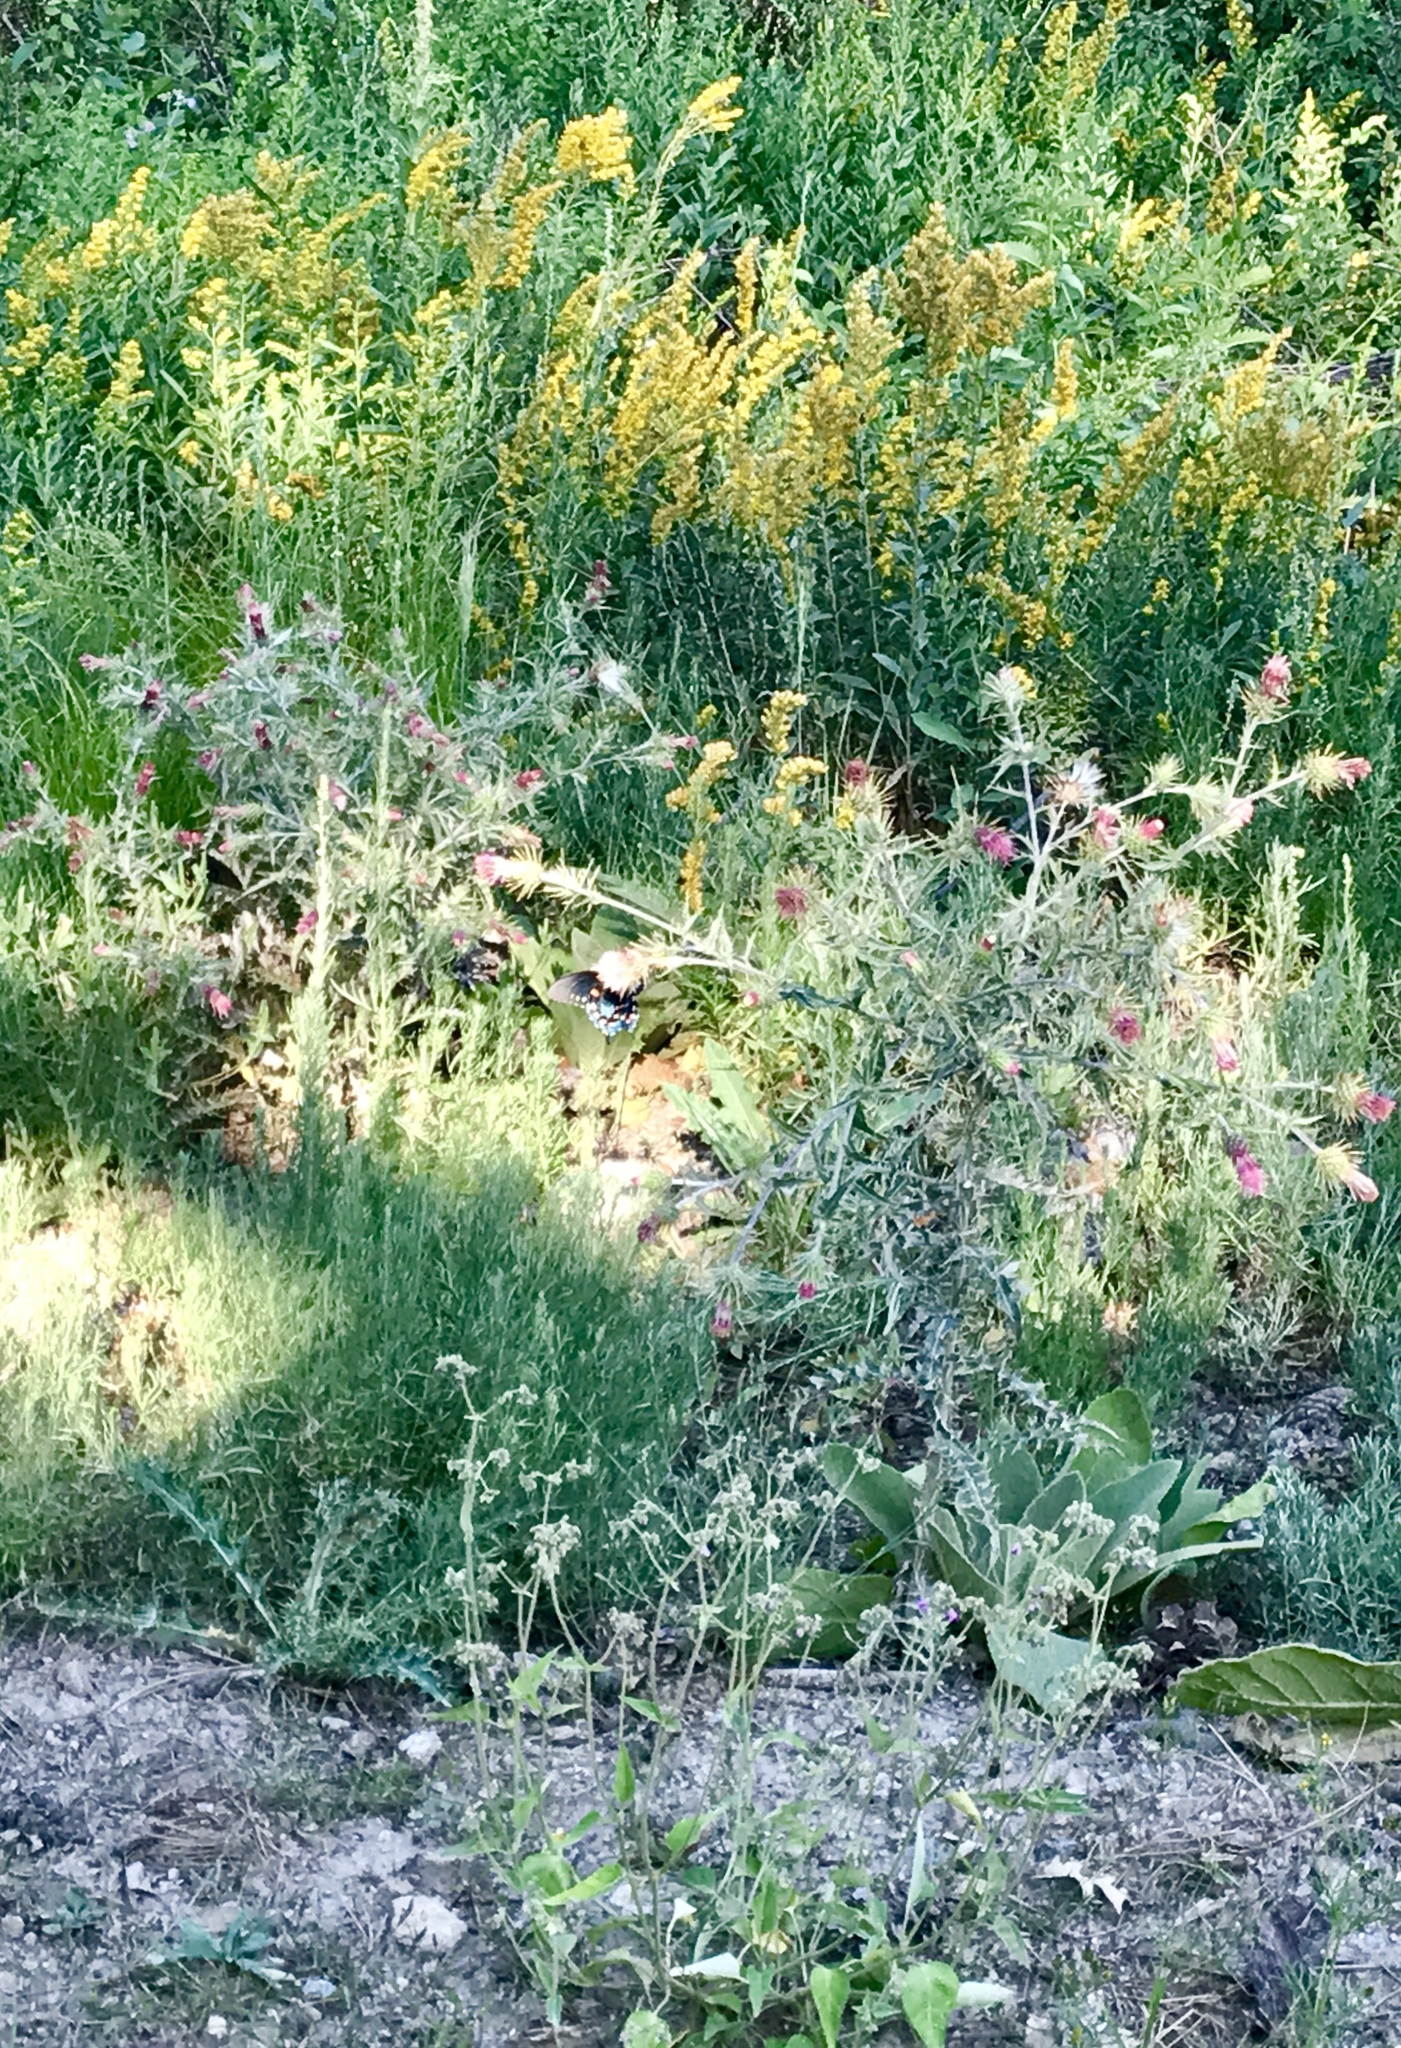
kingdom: Plantae
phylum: Tracheophyta
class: Magnoliopsida
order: Asterales
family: Asteraceae
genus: Cirsium
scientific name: Cirsium arizonicum
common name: Arizona thistle
